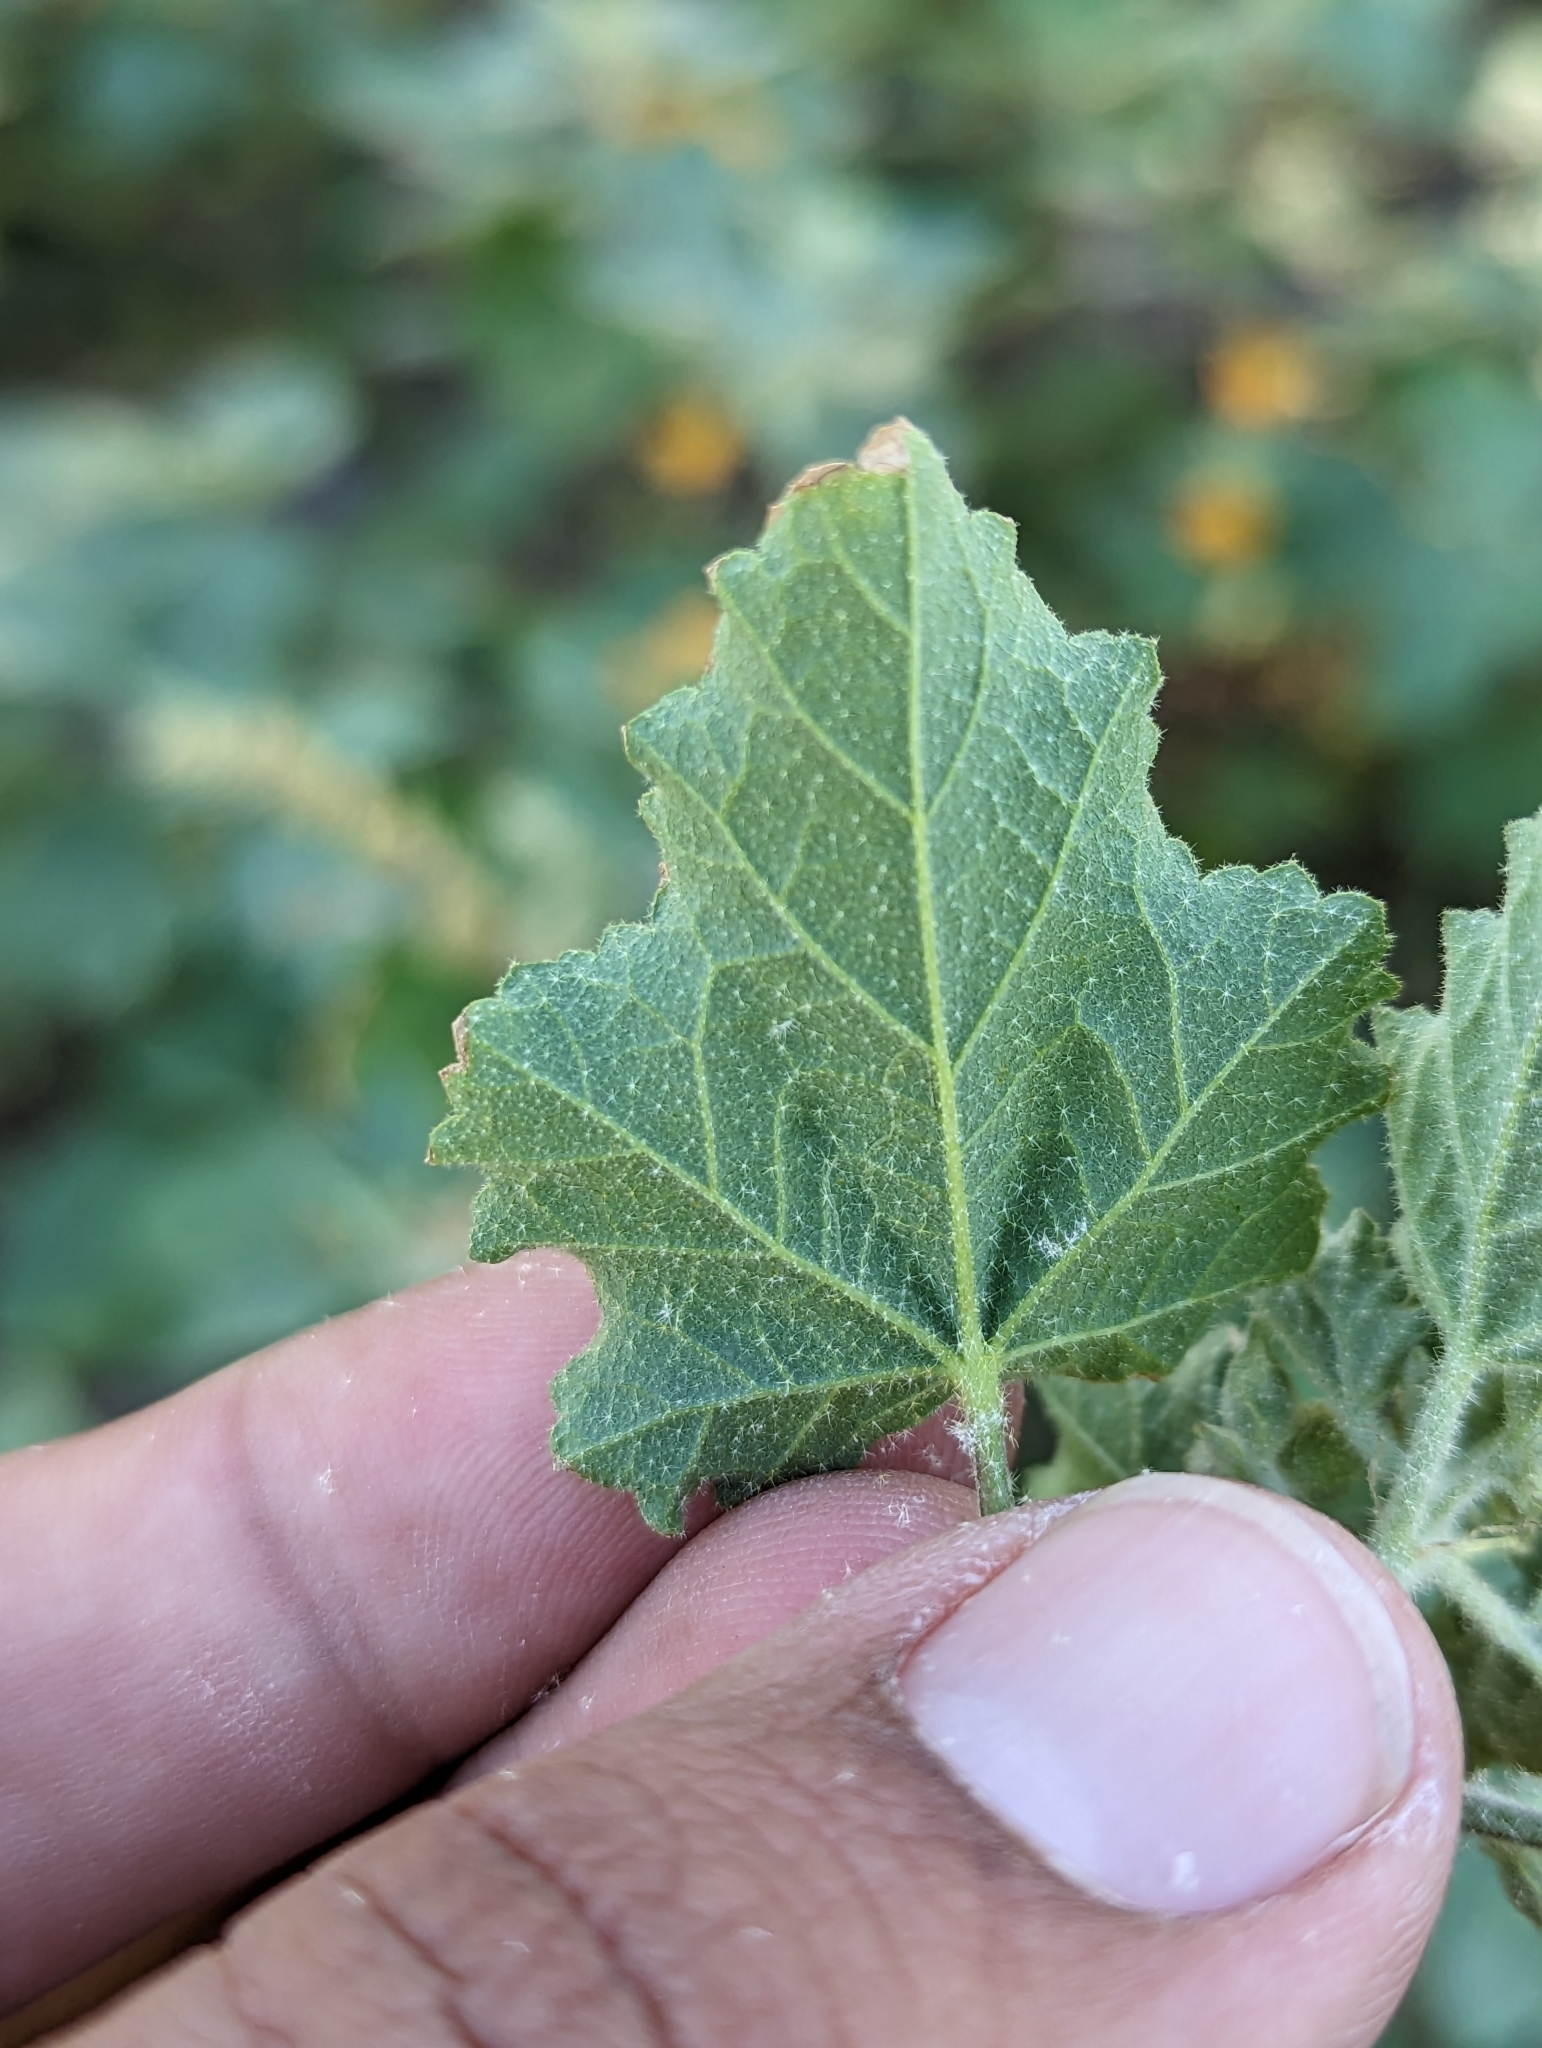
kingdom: Plantae
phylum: Tracheophyta
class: Magnoliopsida
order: Malvales
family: Malvaceae
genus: Sphaeralcea
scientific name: Sphaeralcea coulteri
